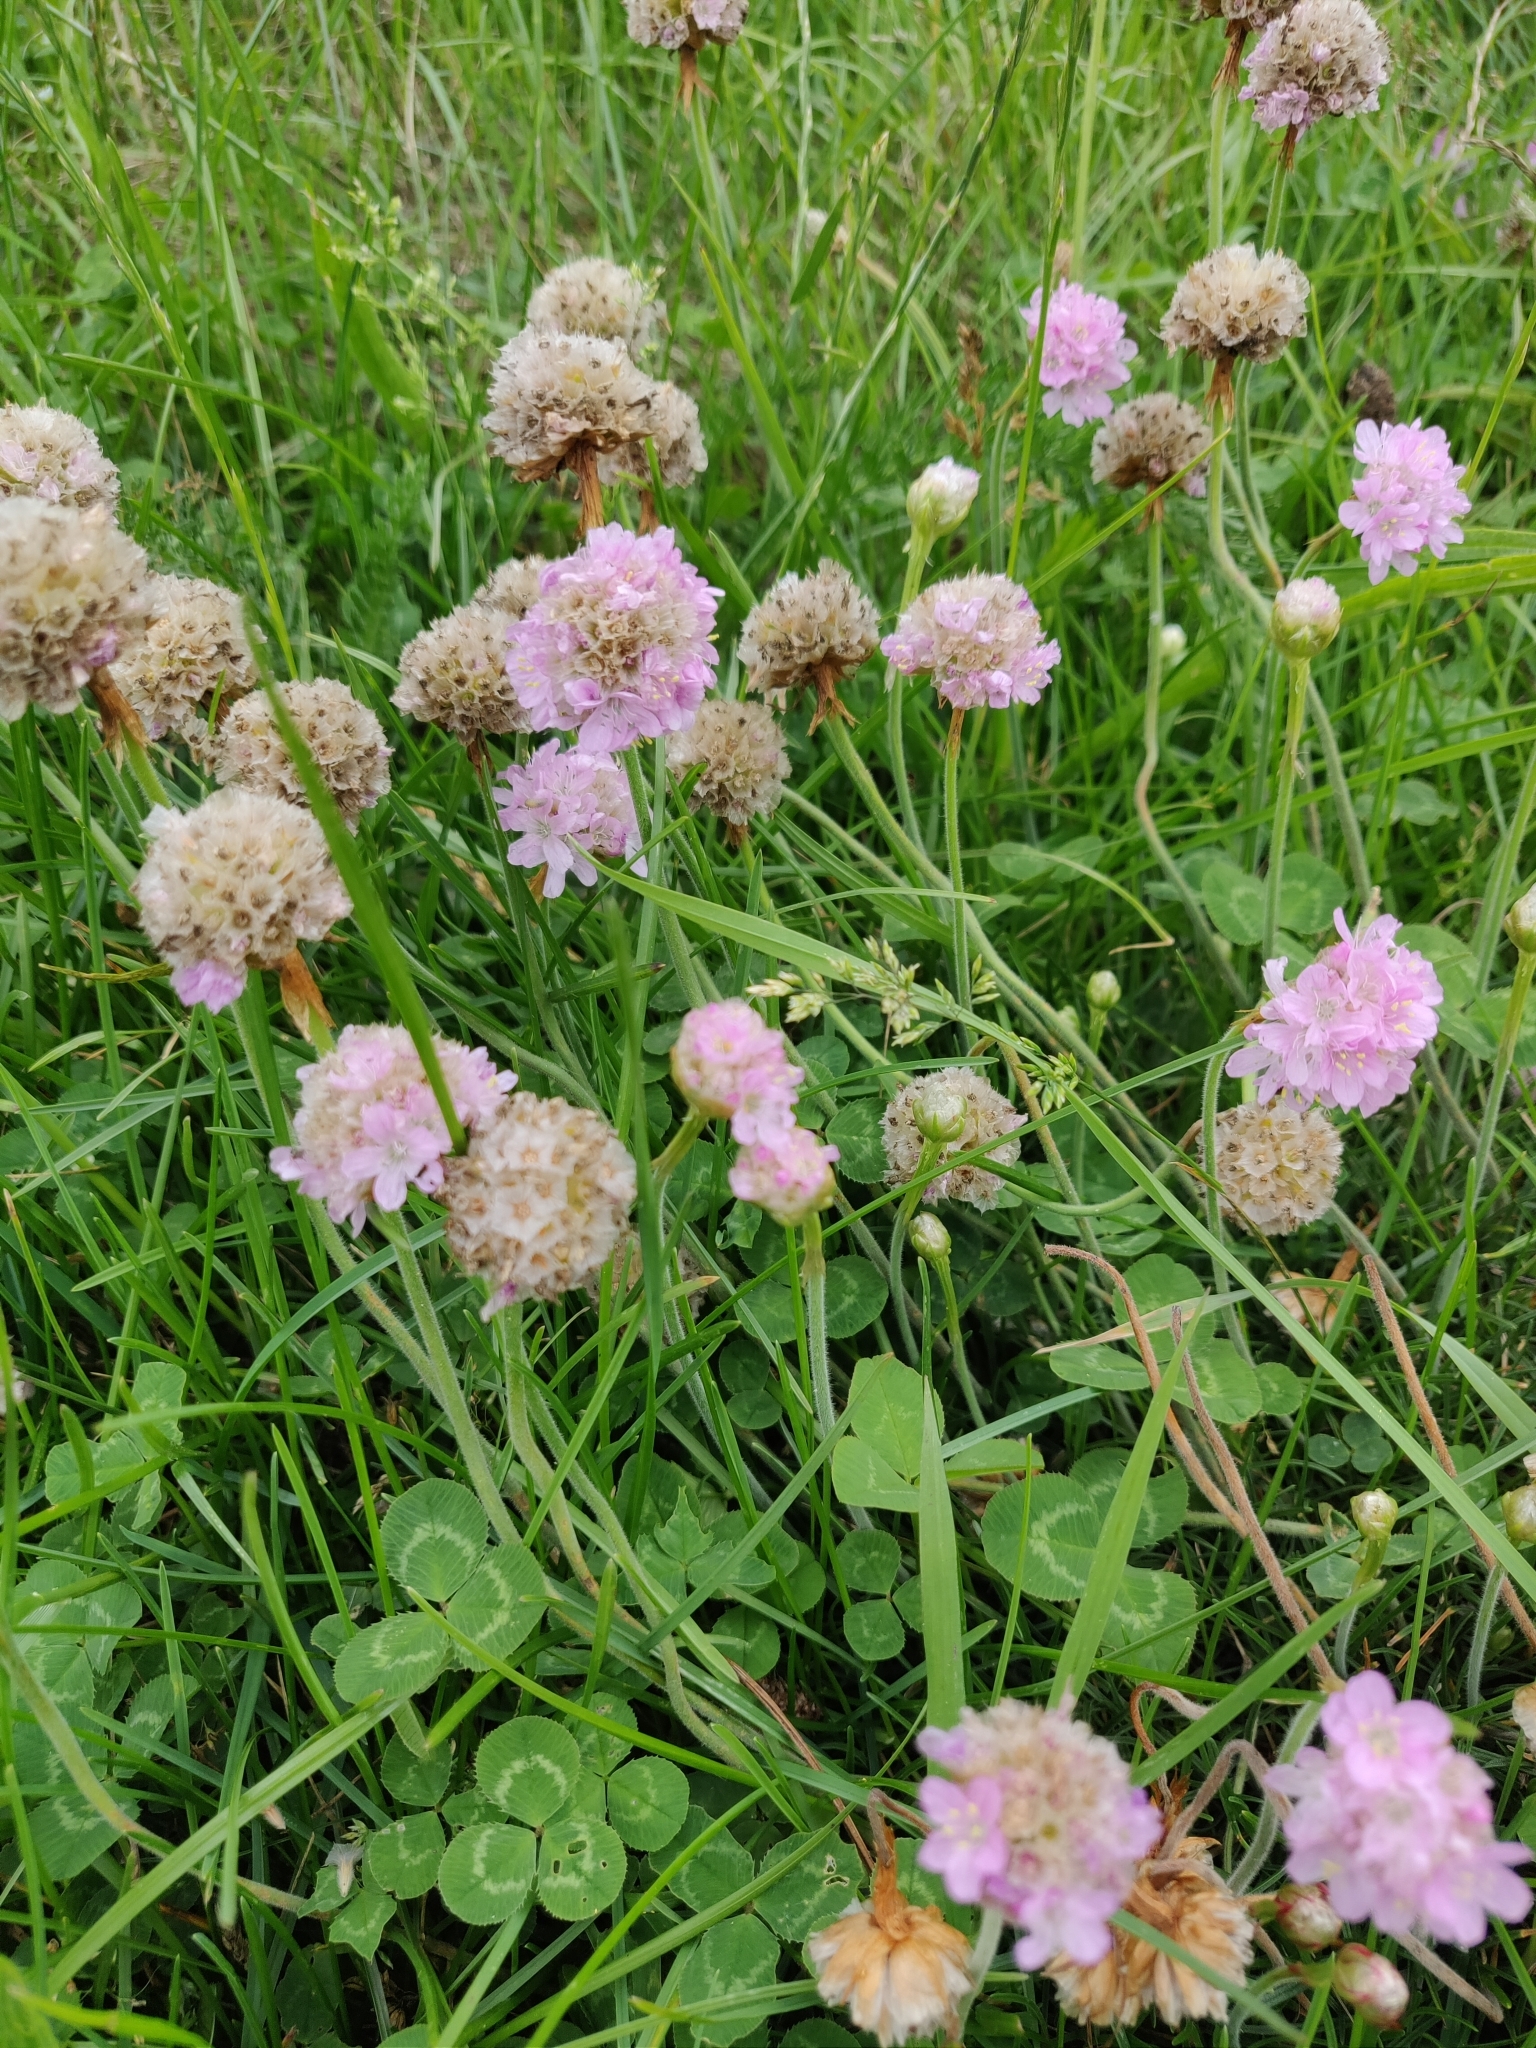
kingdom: Plantae
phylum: Tracheophyta
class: Magnoliopsida
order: Caryophyllales
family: Plumbaginaceae
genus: Armeria
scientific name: Armeria maritima
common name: Thrift
